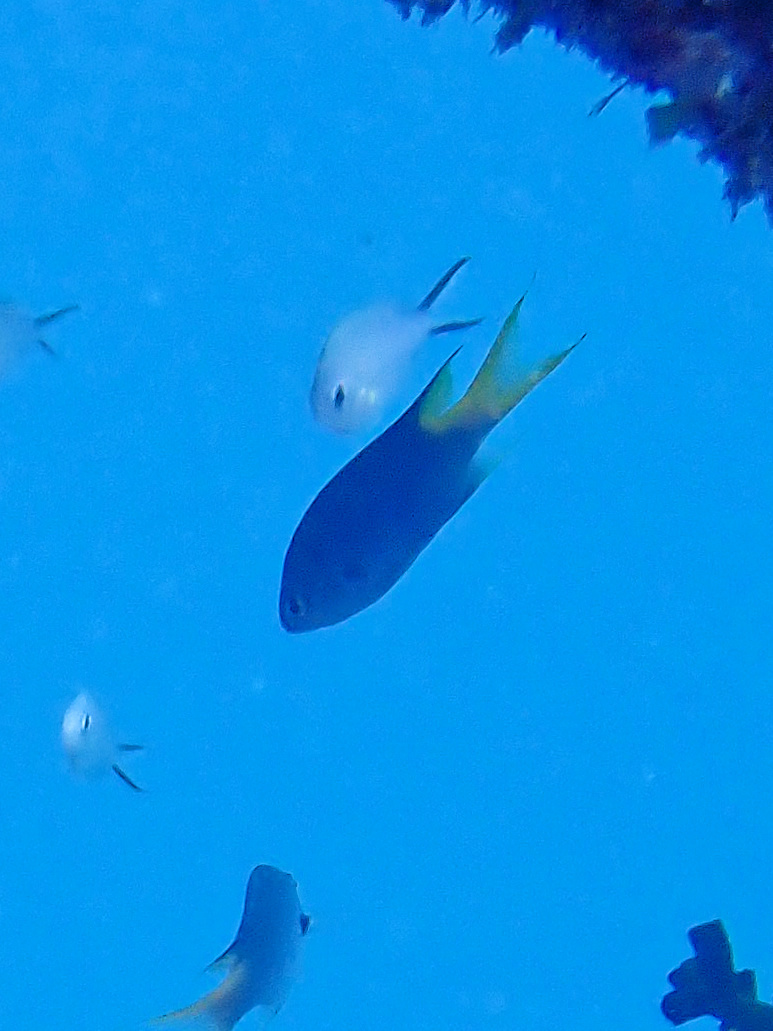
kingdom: Animalia
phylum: Chordata
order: Perciformes
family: Pomacentridae
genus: Neopomacentrus
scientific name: Neopomacentrus azysron
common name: Yellow-tail damsel
